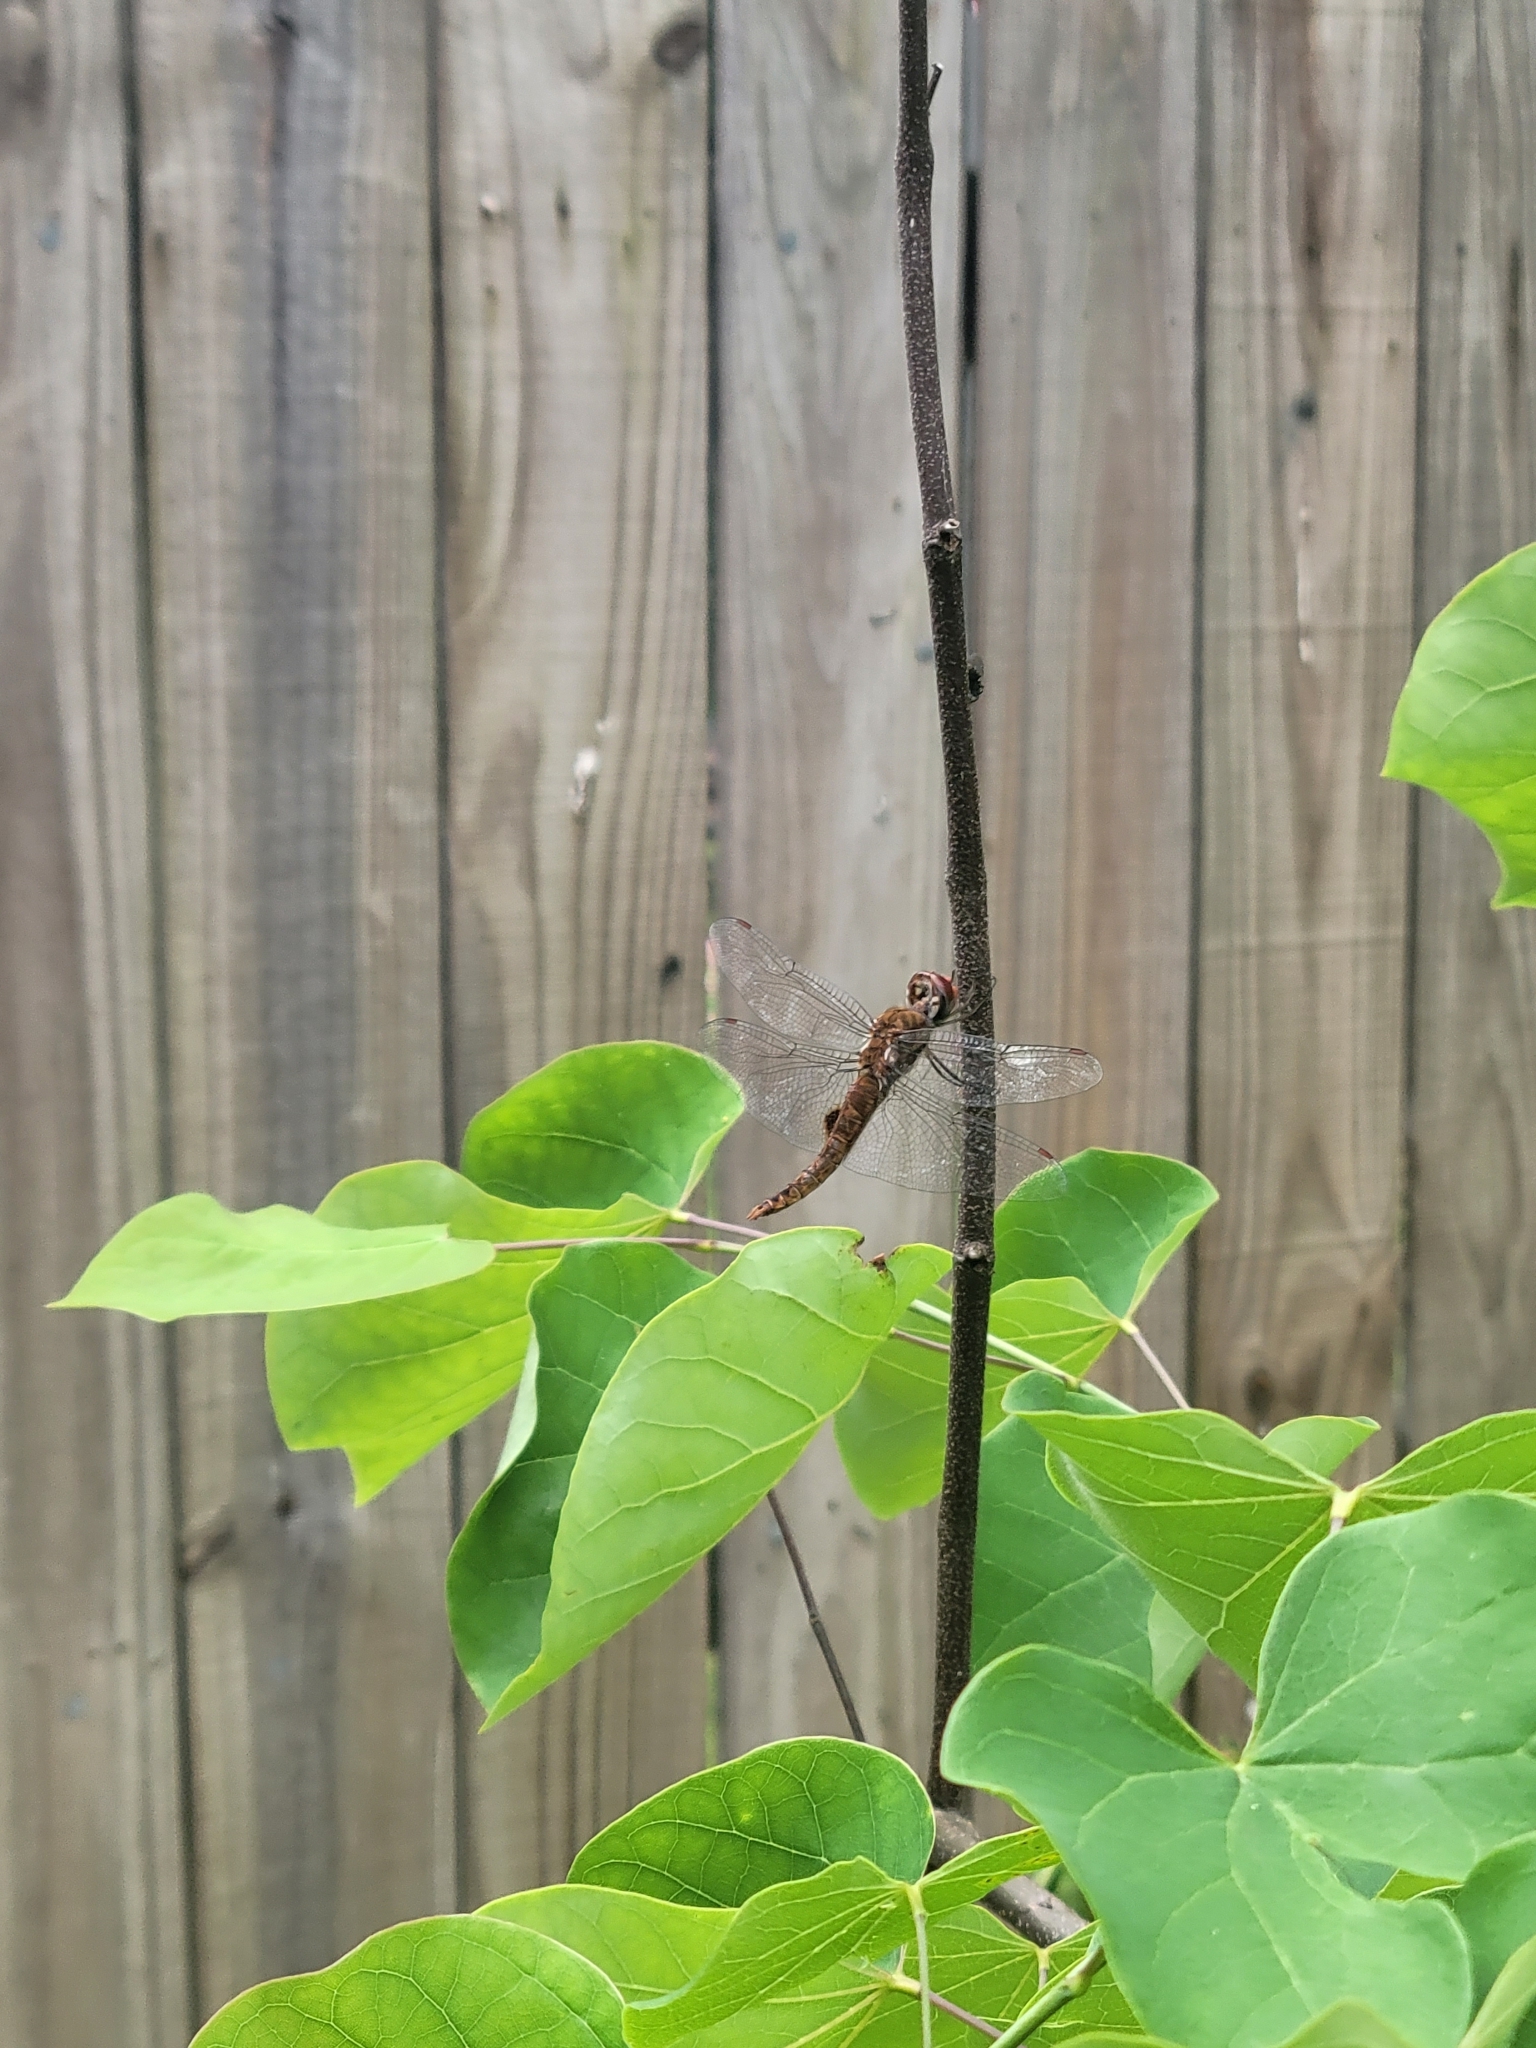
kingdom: Animalia
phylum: Arthropoda
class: Insecta
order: Odonata
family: Libellulidae
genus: Pantala
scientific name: Pantala hymenaea
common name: Spot-winged glider
